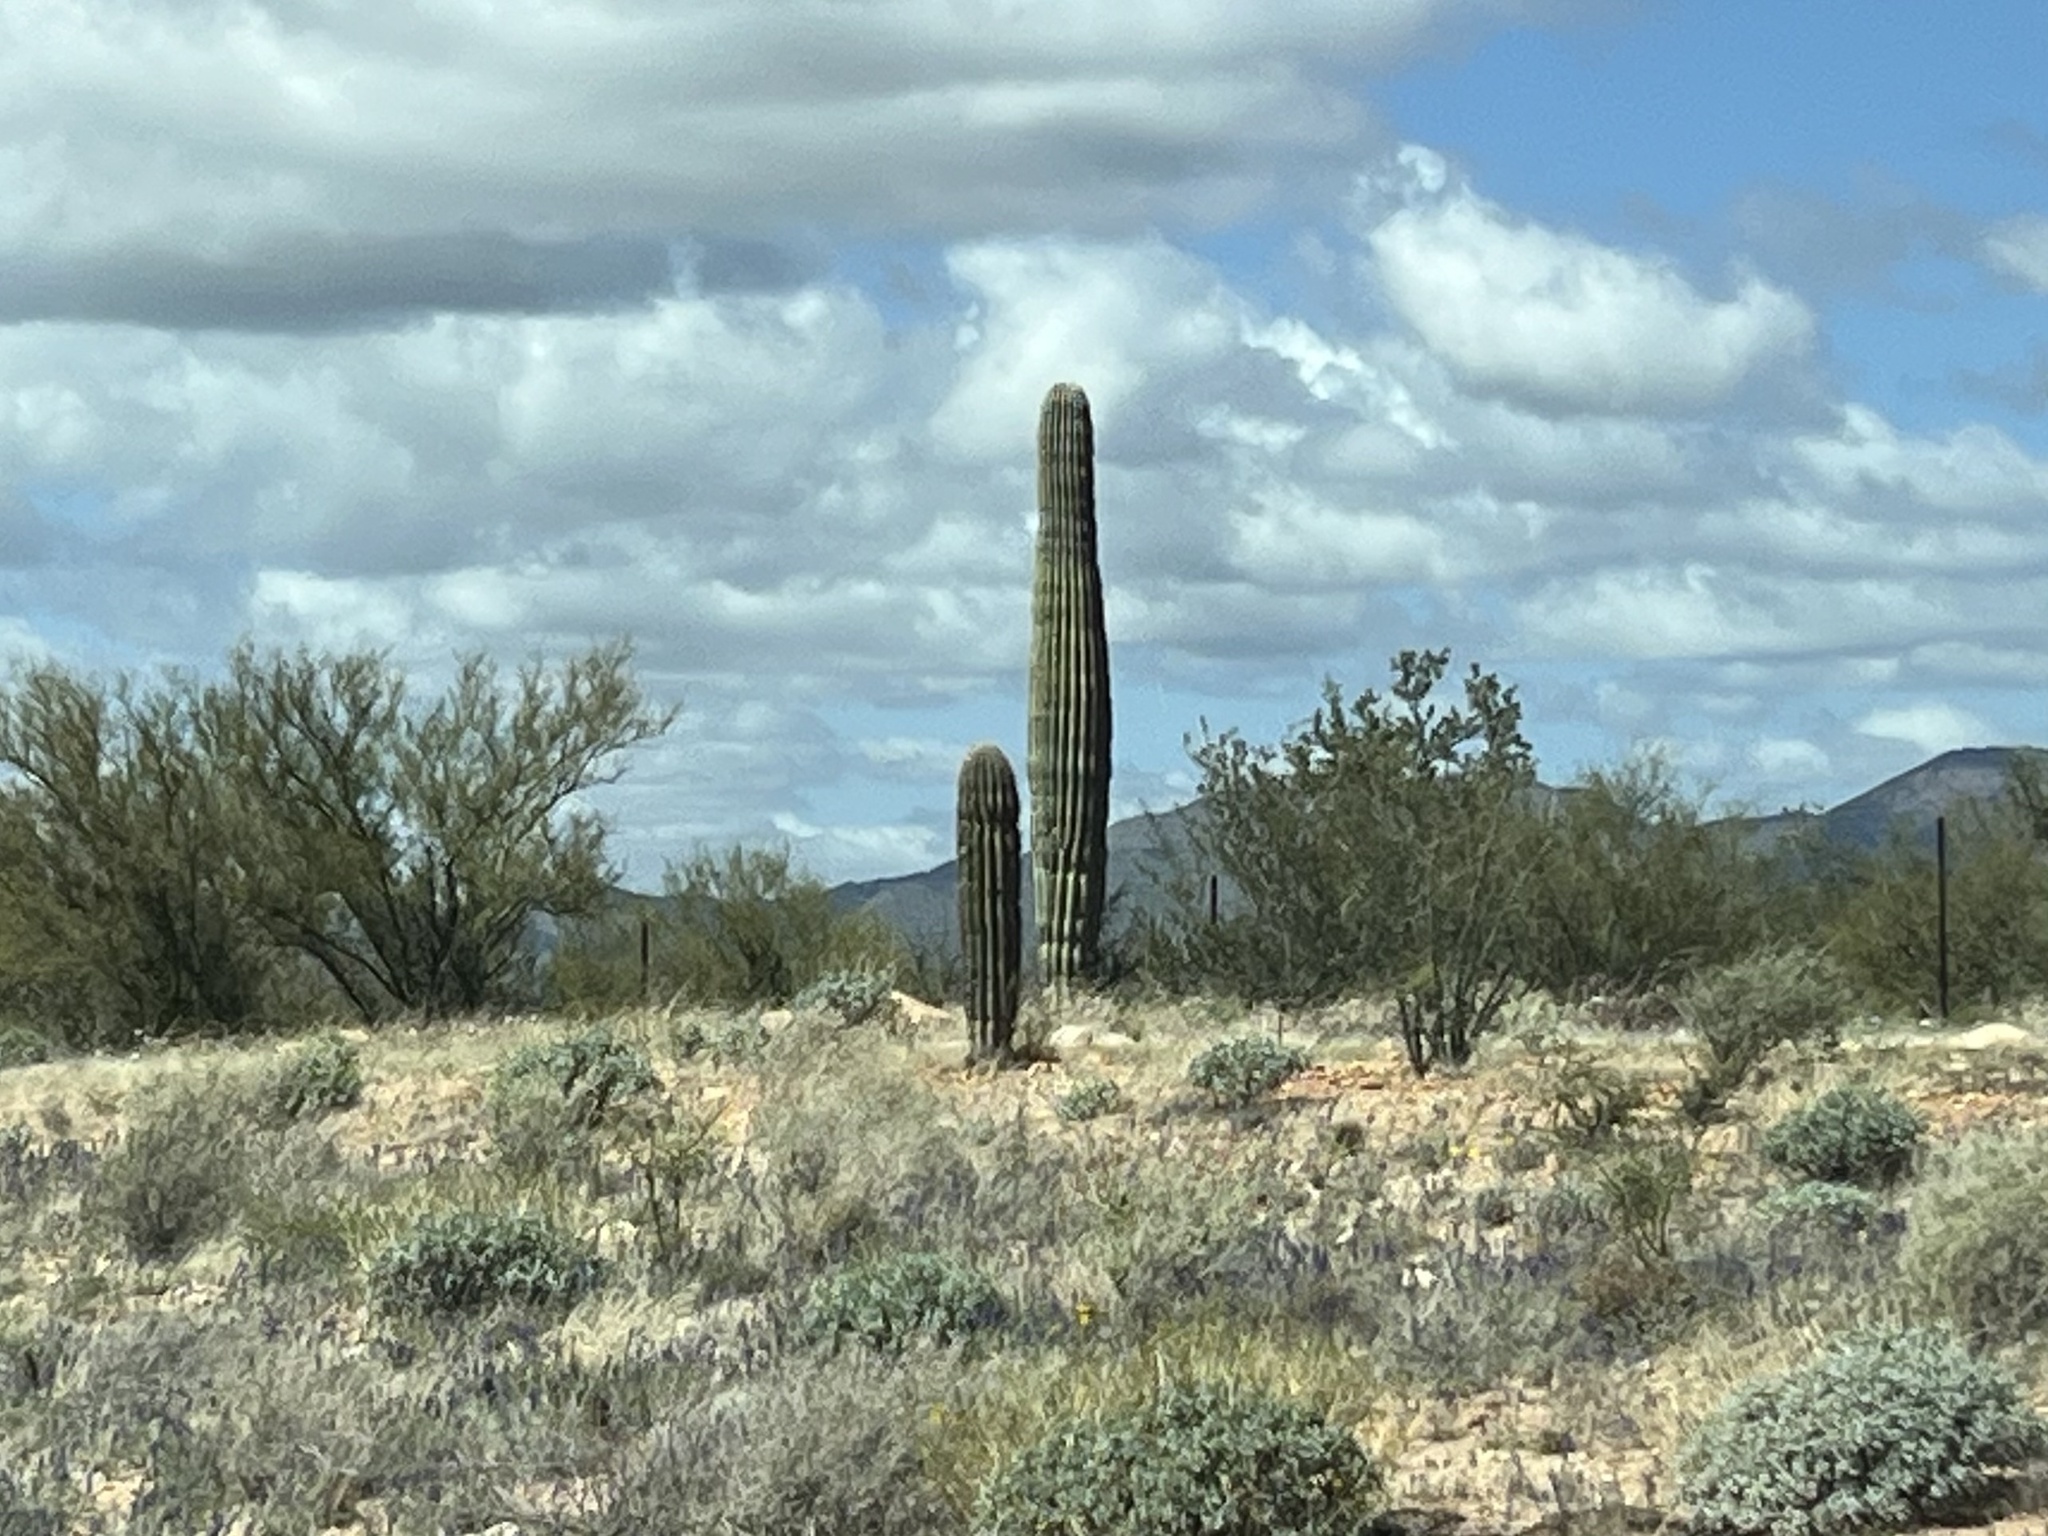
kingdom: Plantae
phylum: Tracheophyta
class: Magnoliopsida
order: Caryophyllales
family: Cactaceae
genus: Carnegiea
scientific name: Carnegiea gigantea
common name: Saguaro
